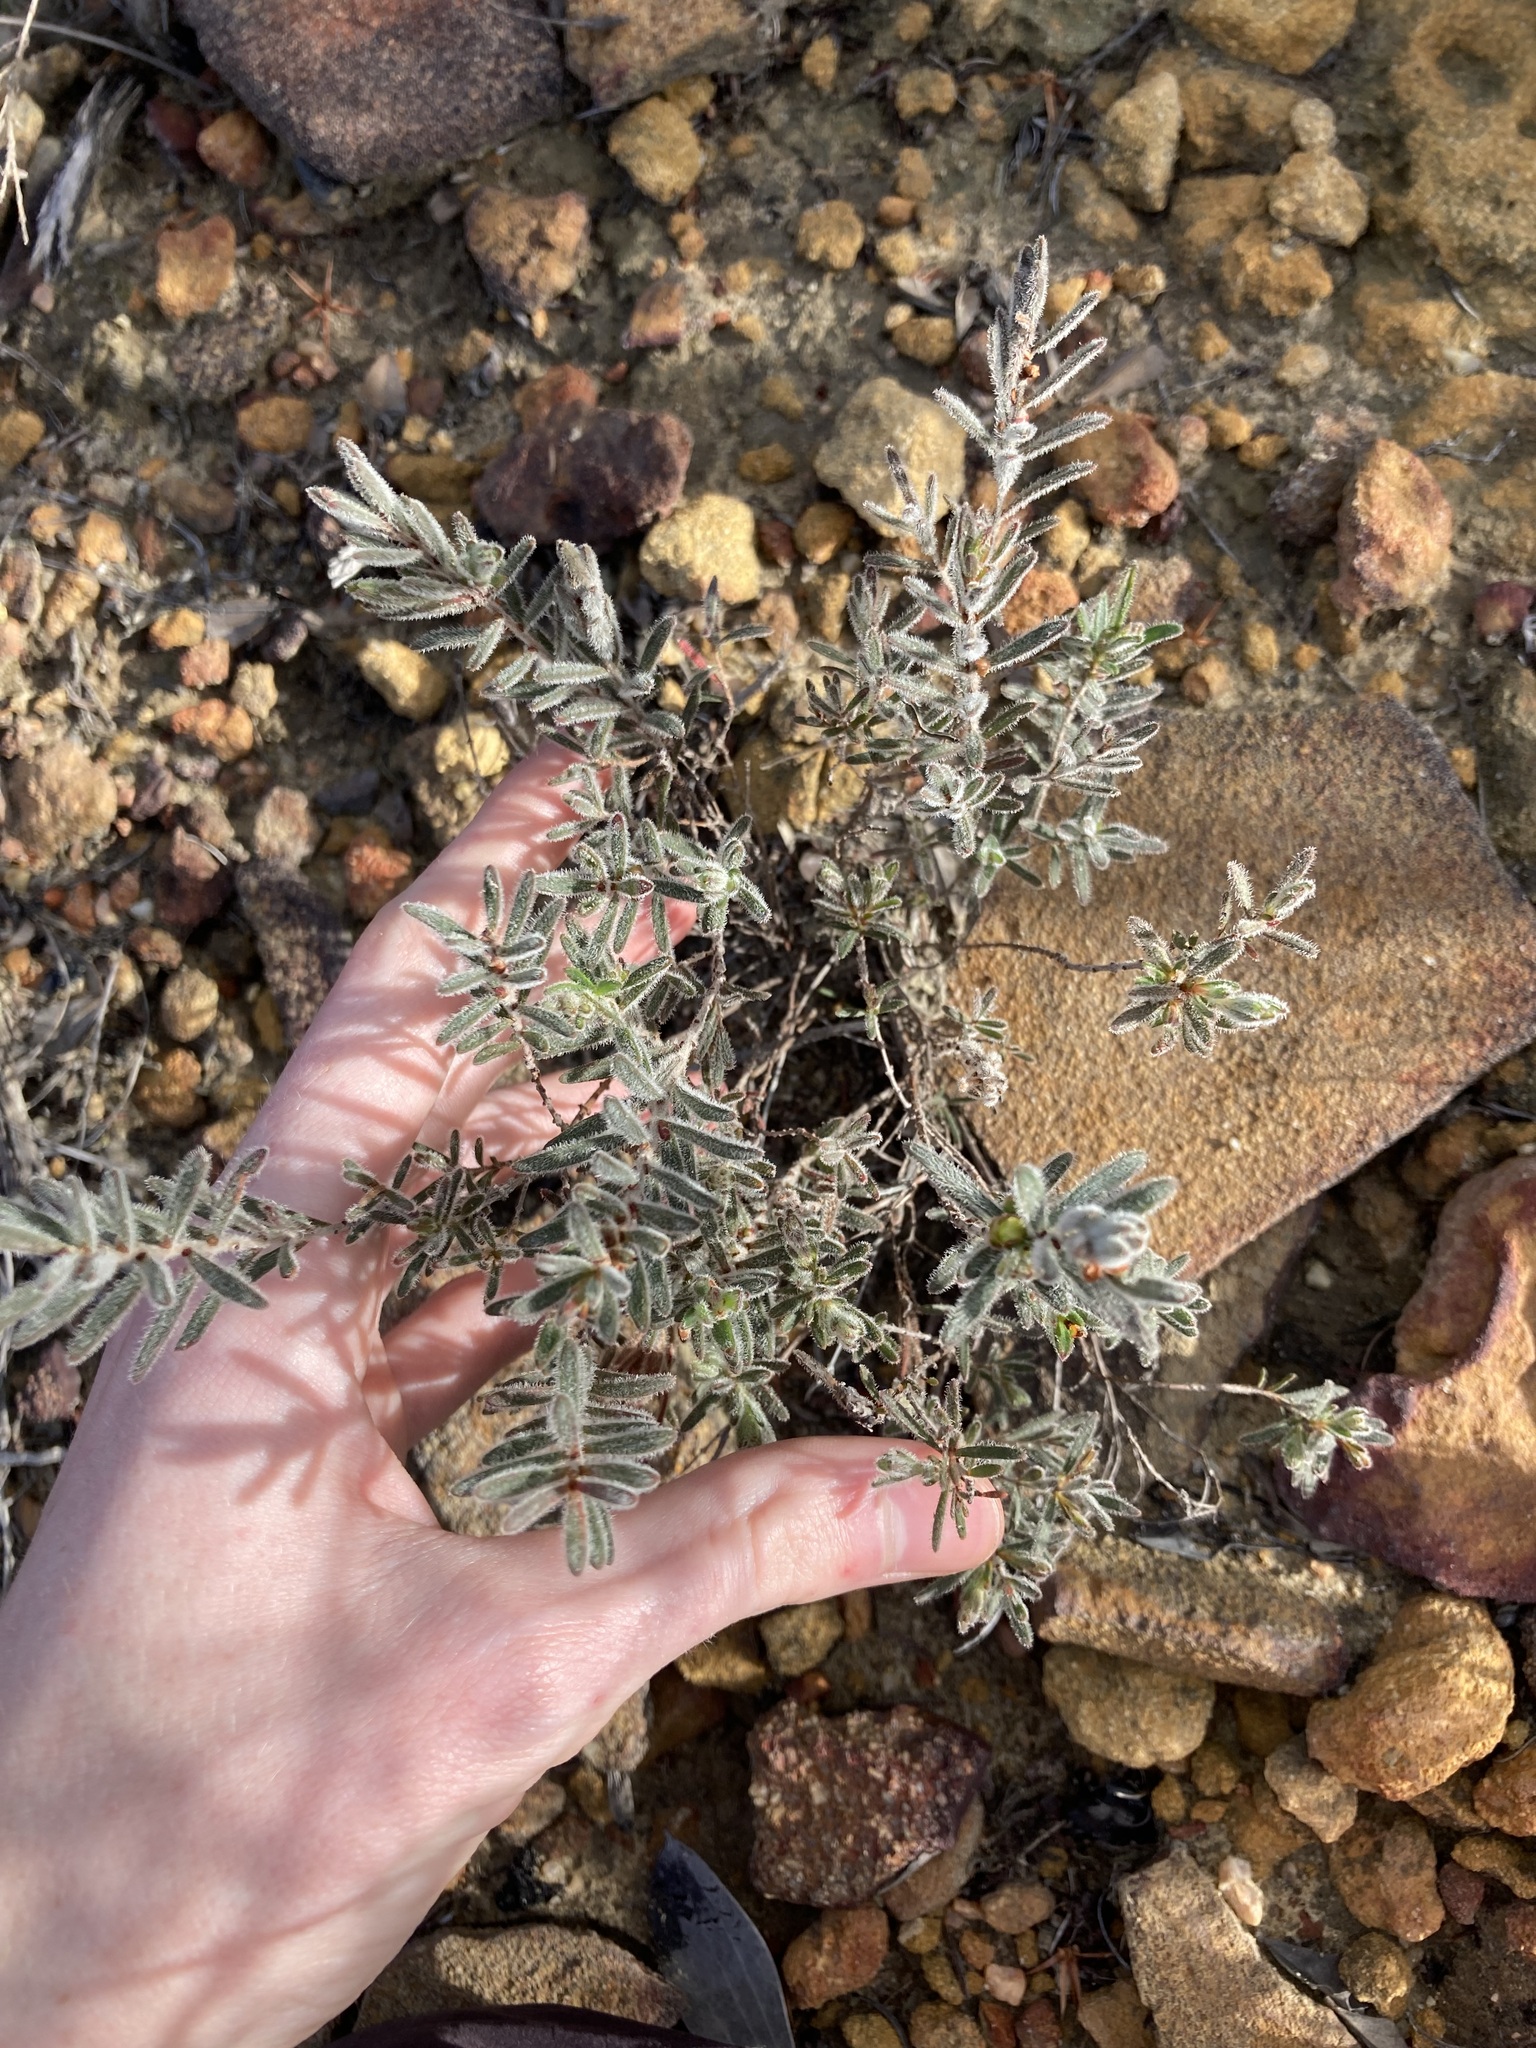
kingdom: Plantae
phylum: Tracheophyta
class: Magnoliopsida
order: Myrtales
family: Myrtaceae
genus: Hypocalymma
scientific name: Hypocalymma hirsutum
